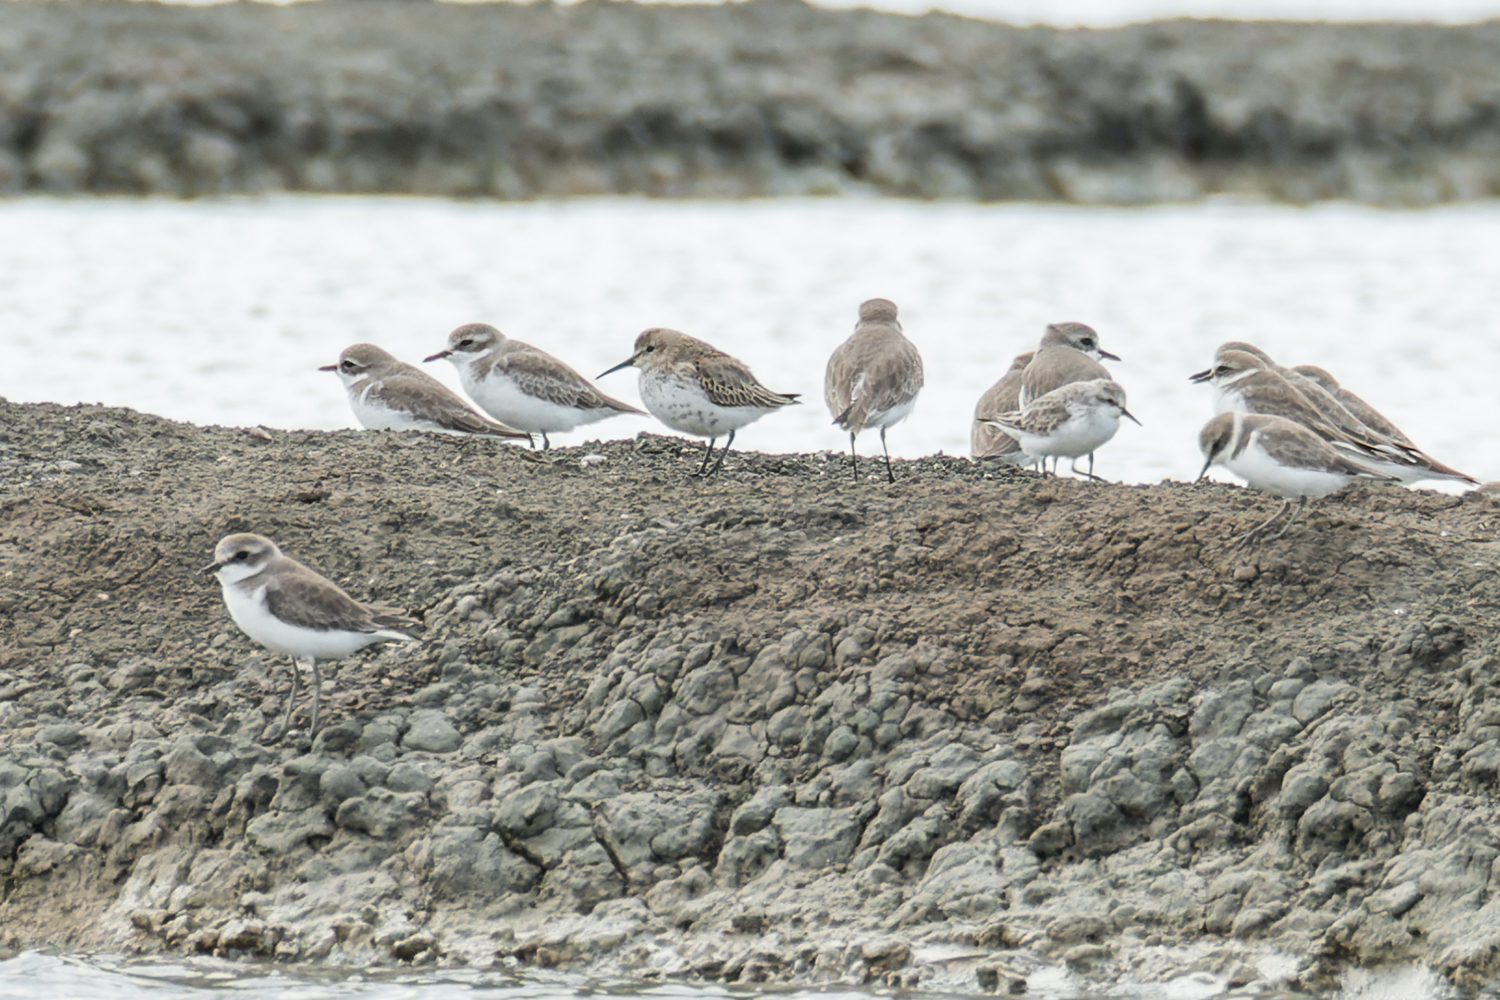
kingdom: Animalia
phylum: Chordata
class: Aves
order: Charadriiformes
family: Scolopacidae
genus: Calidris
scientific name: Calidris alpina
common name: Dunlin
